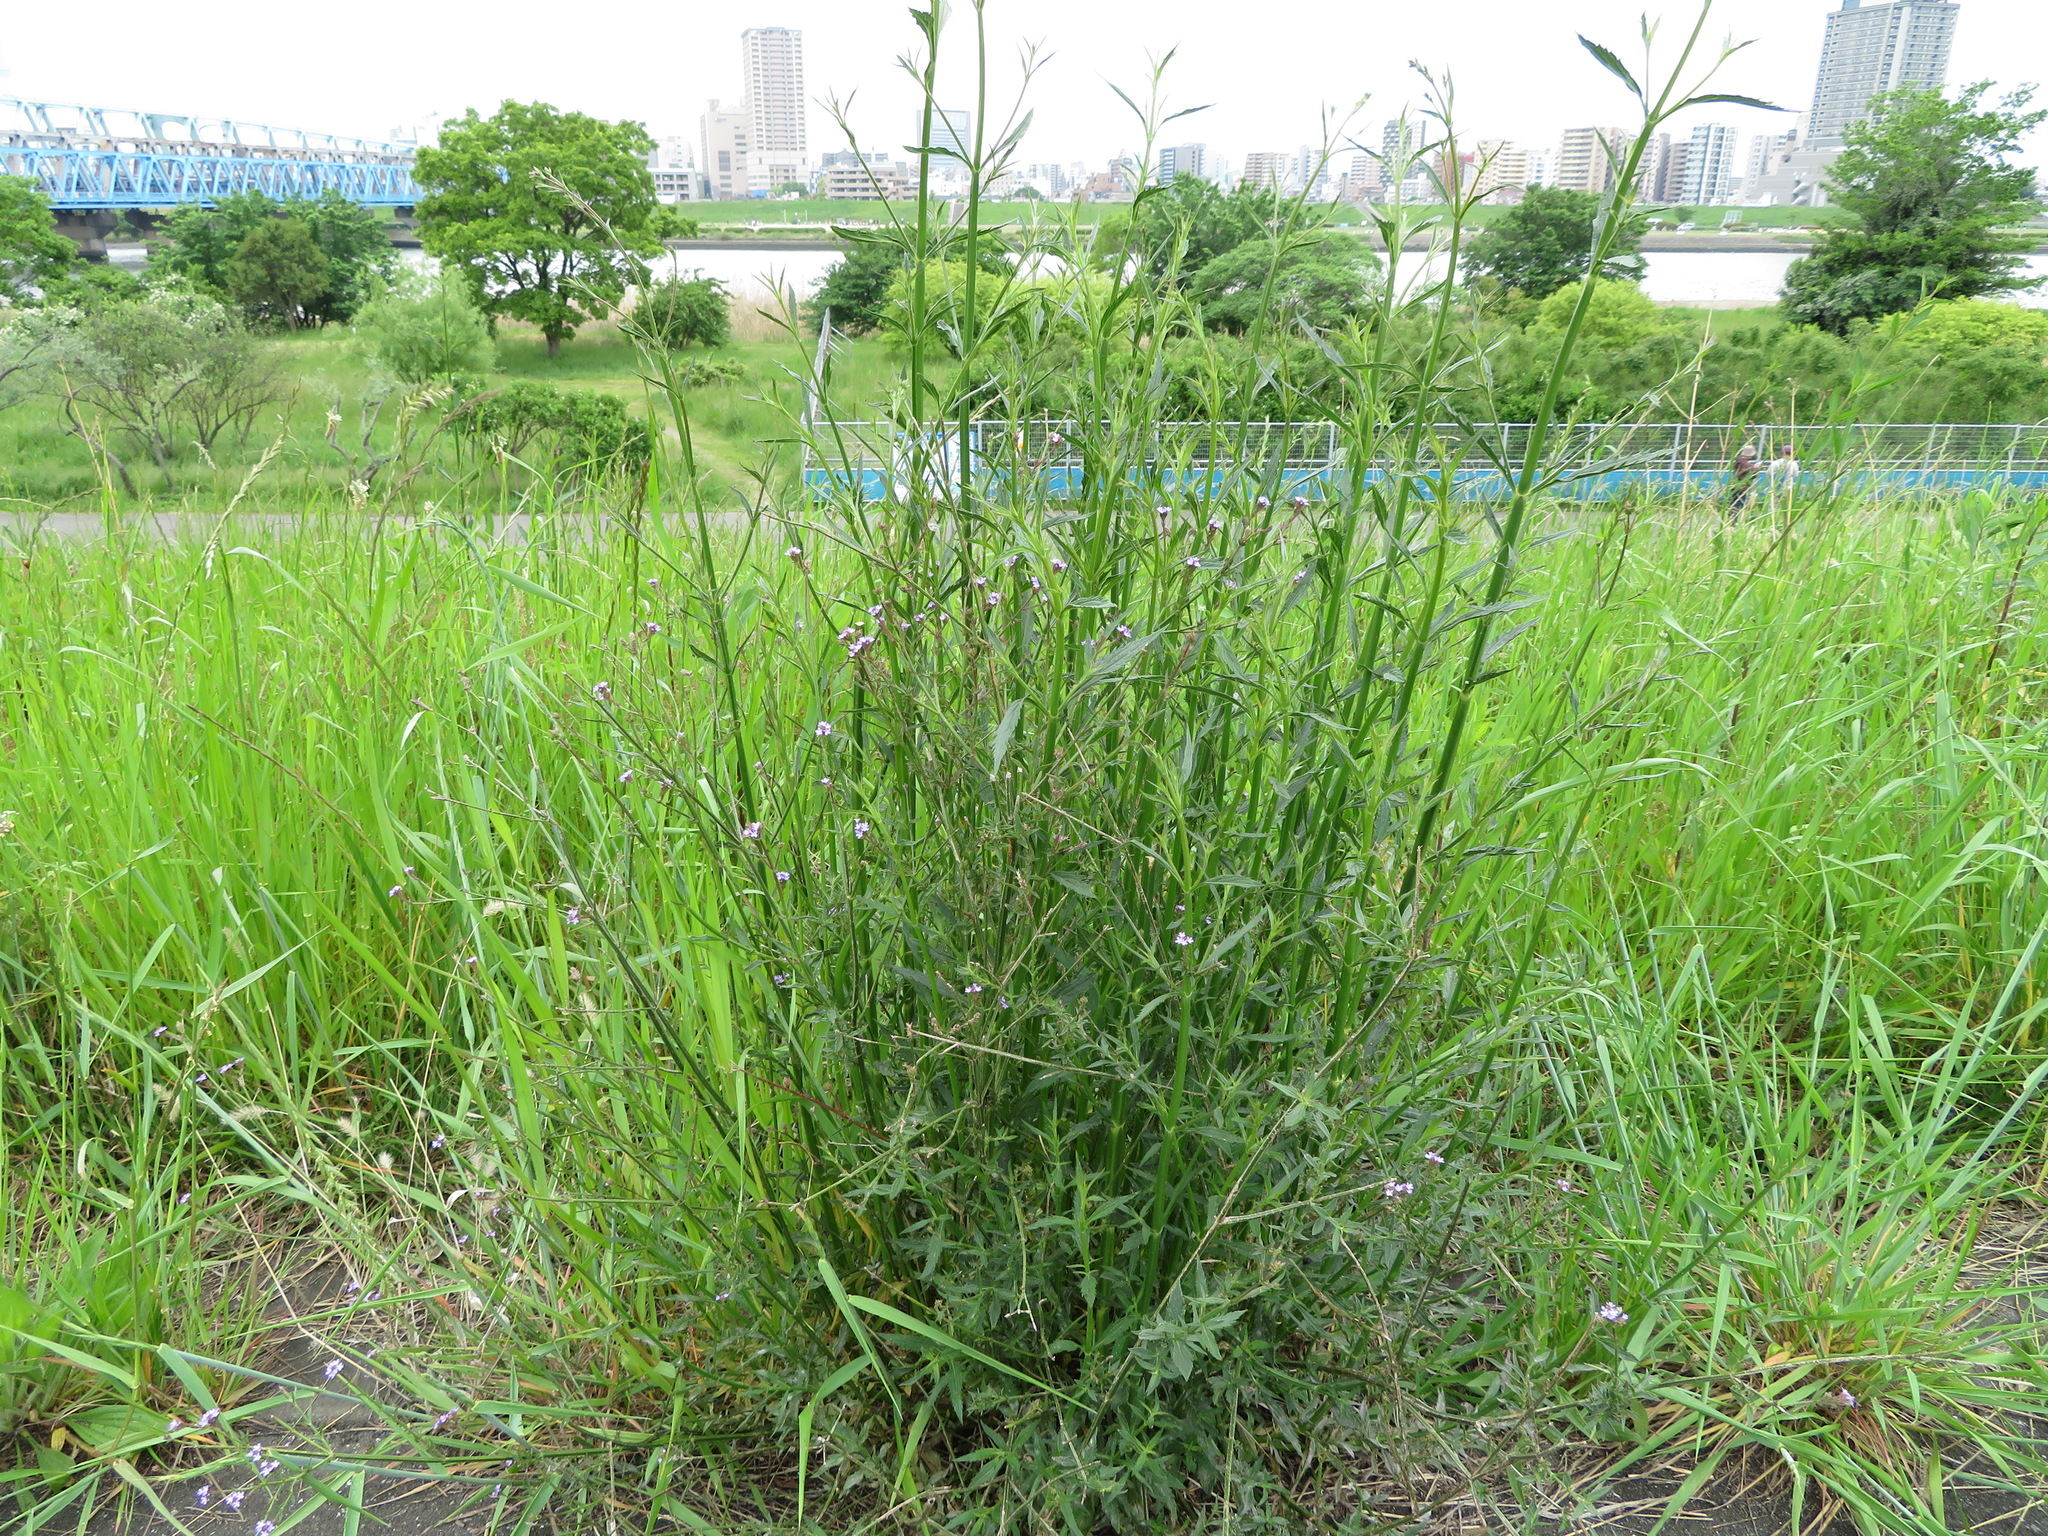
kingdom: Plantae
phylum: Tracheophyta
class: Magnoliopsida
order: Lamiales
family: Verbenaceae
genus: Verbena
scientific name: Verbena brasiliensis
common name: Brazilian vervain
